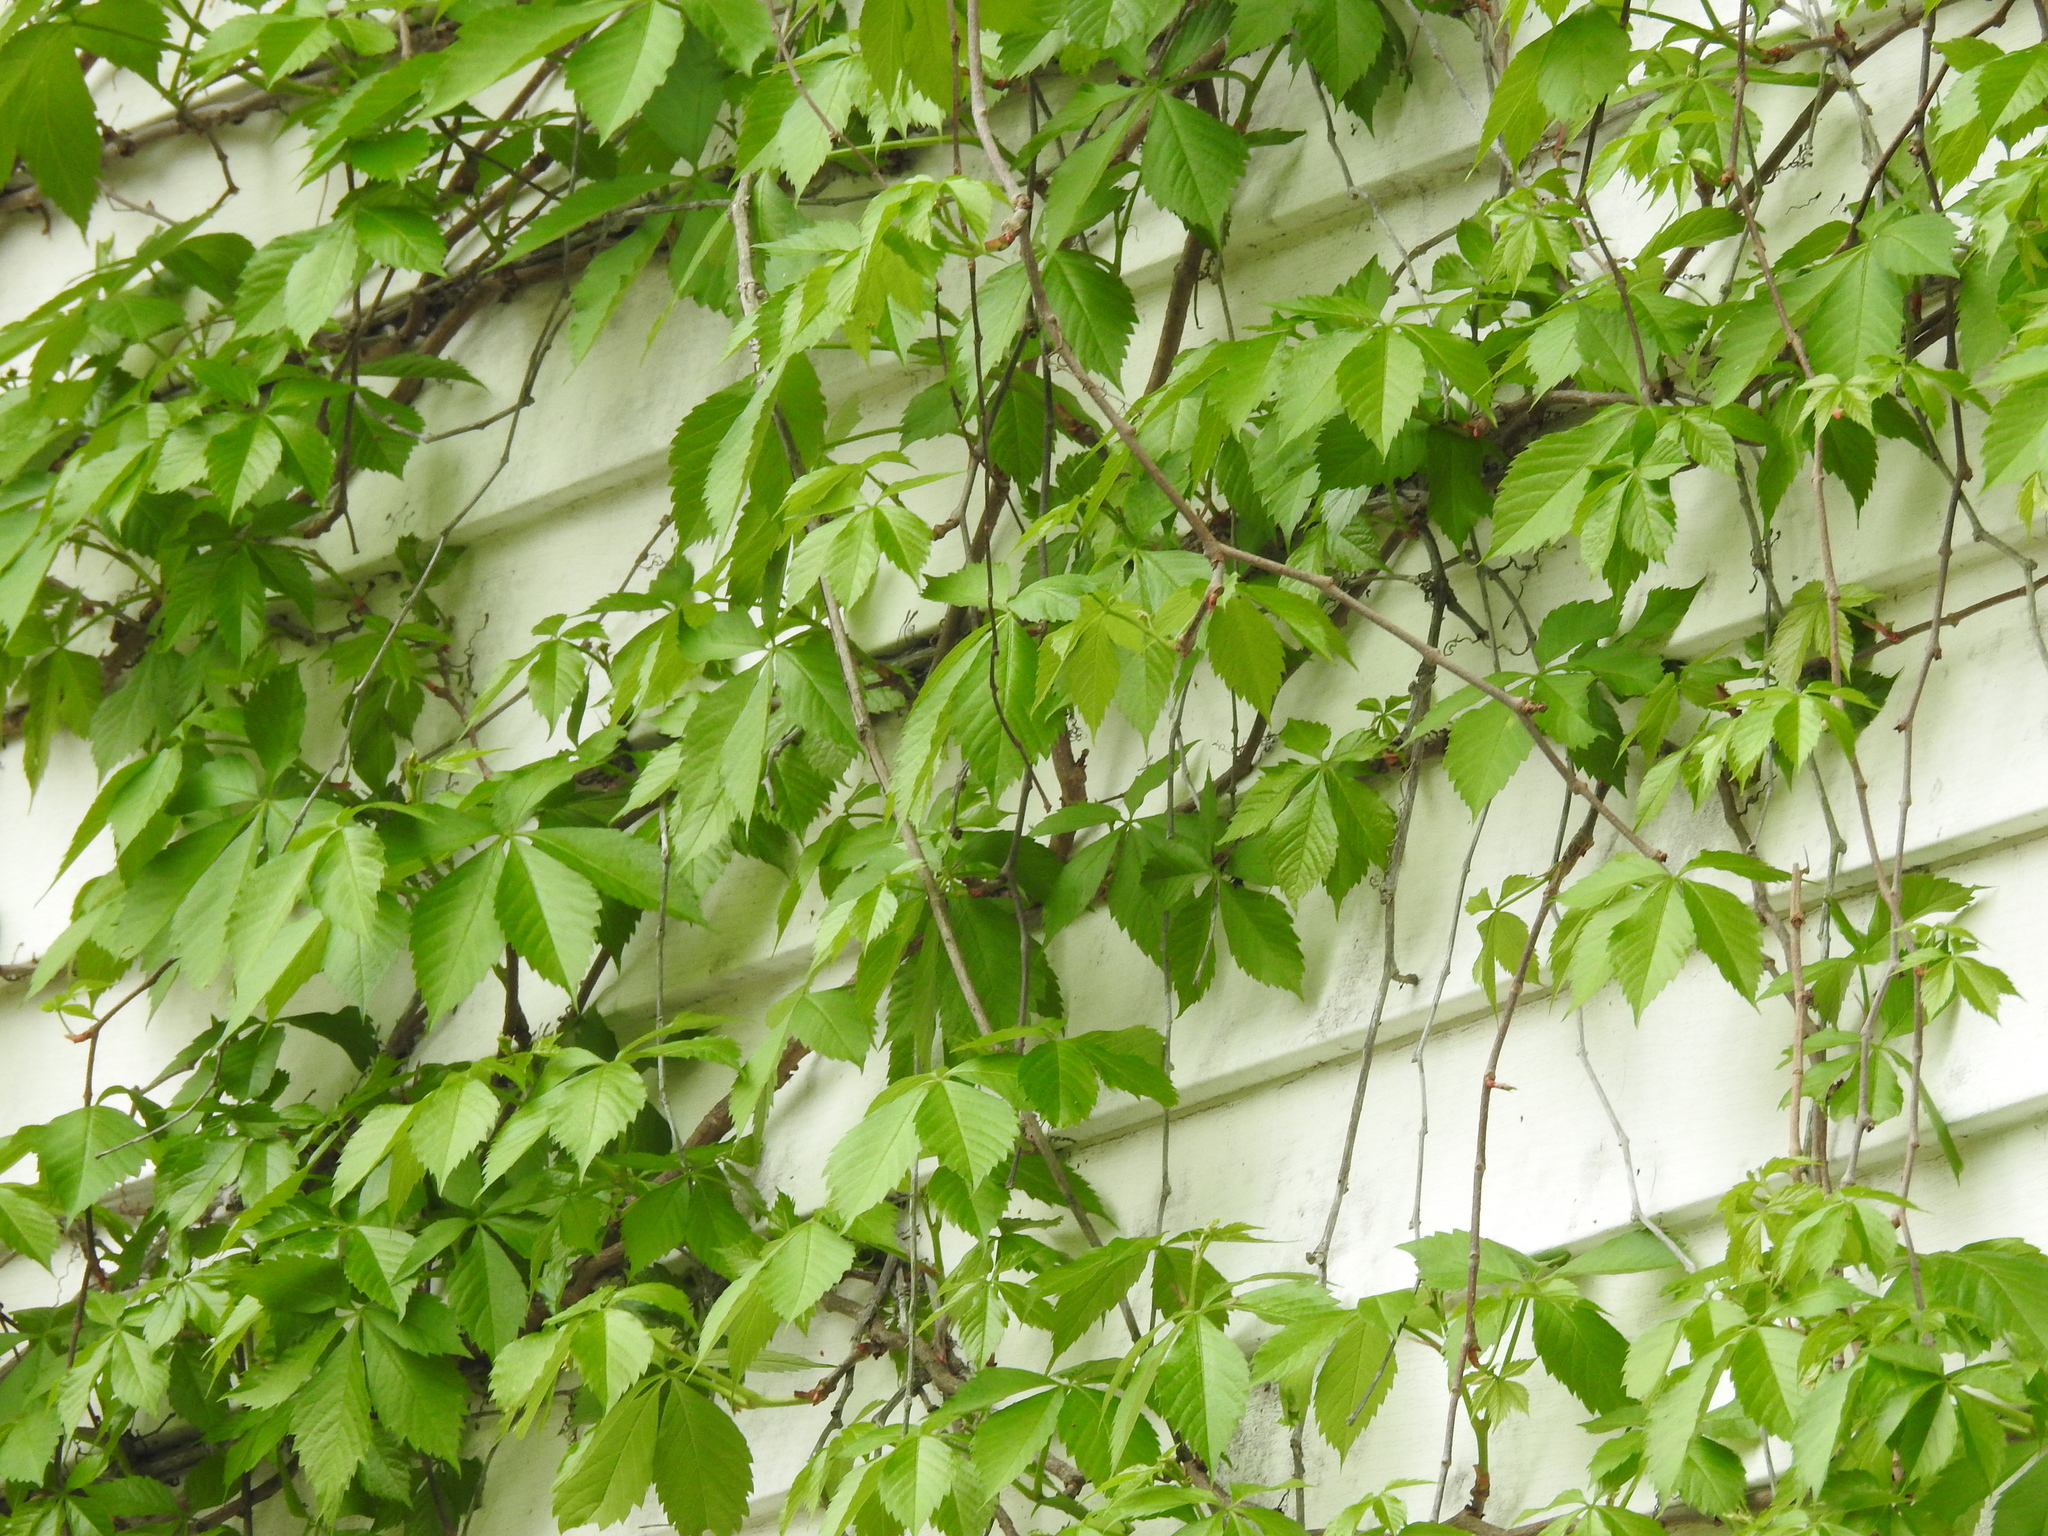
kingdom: Plantae
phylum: Tracheophyta
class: Magnoliopsida
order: Vitales
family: Vitaceae
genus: Parthenocissus
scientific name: Parthenocissus quinquefolia
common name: Virginia-creeper
